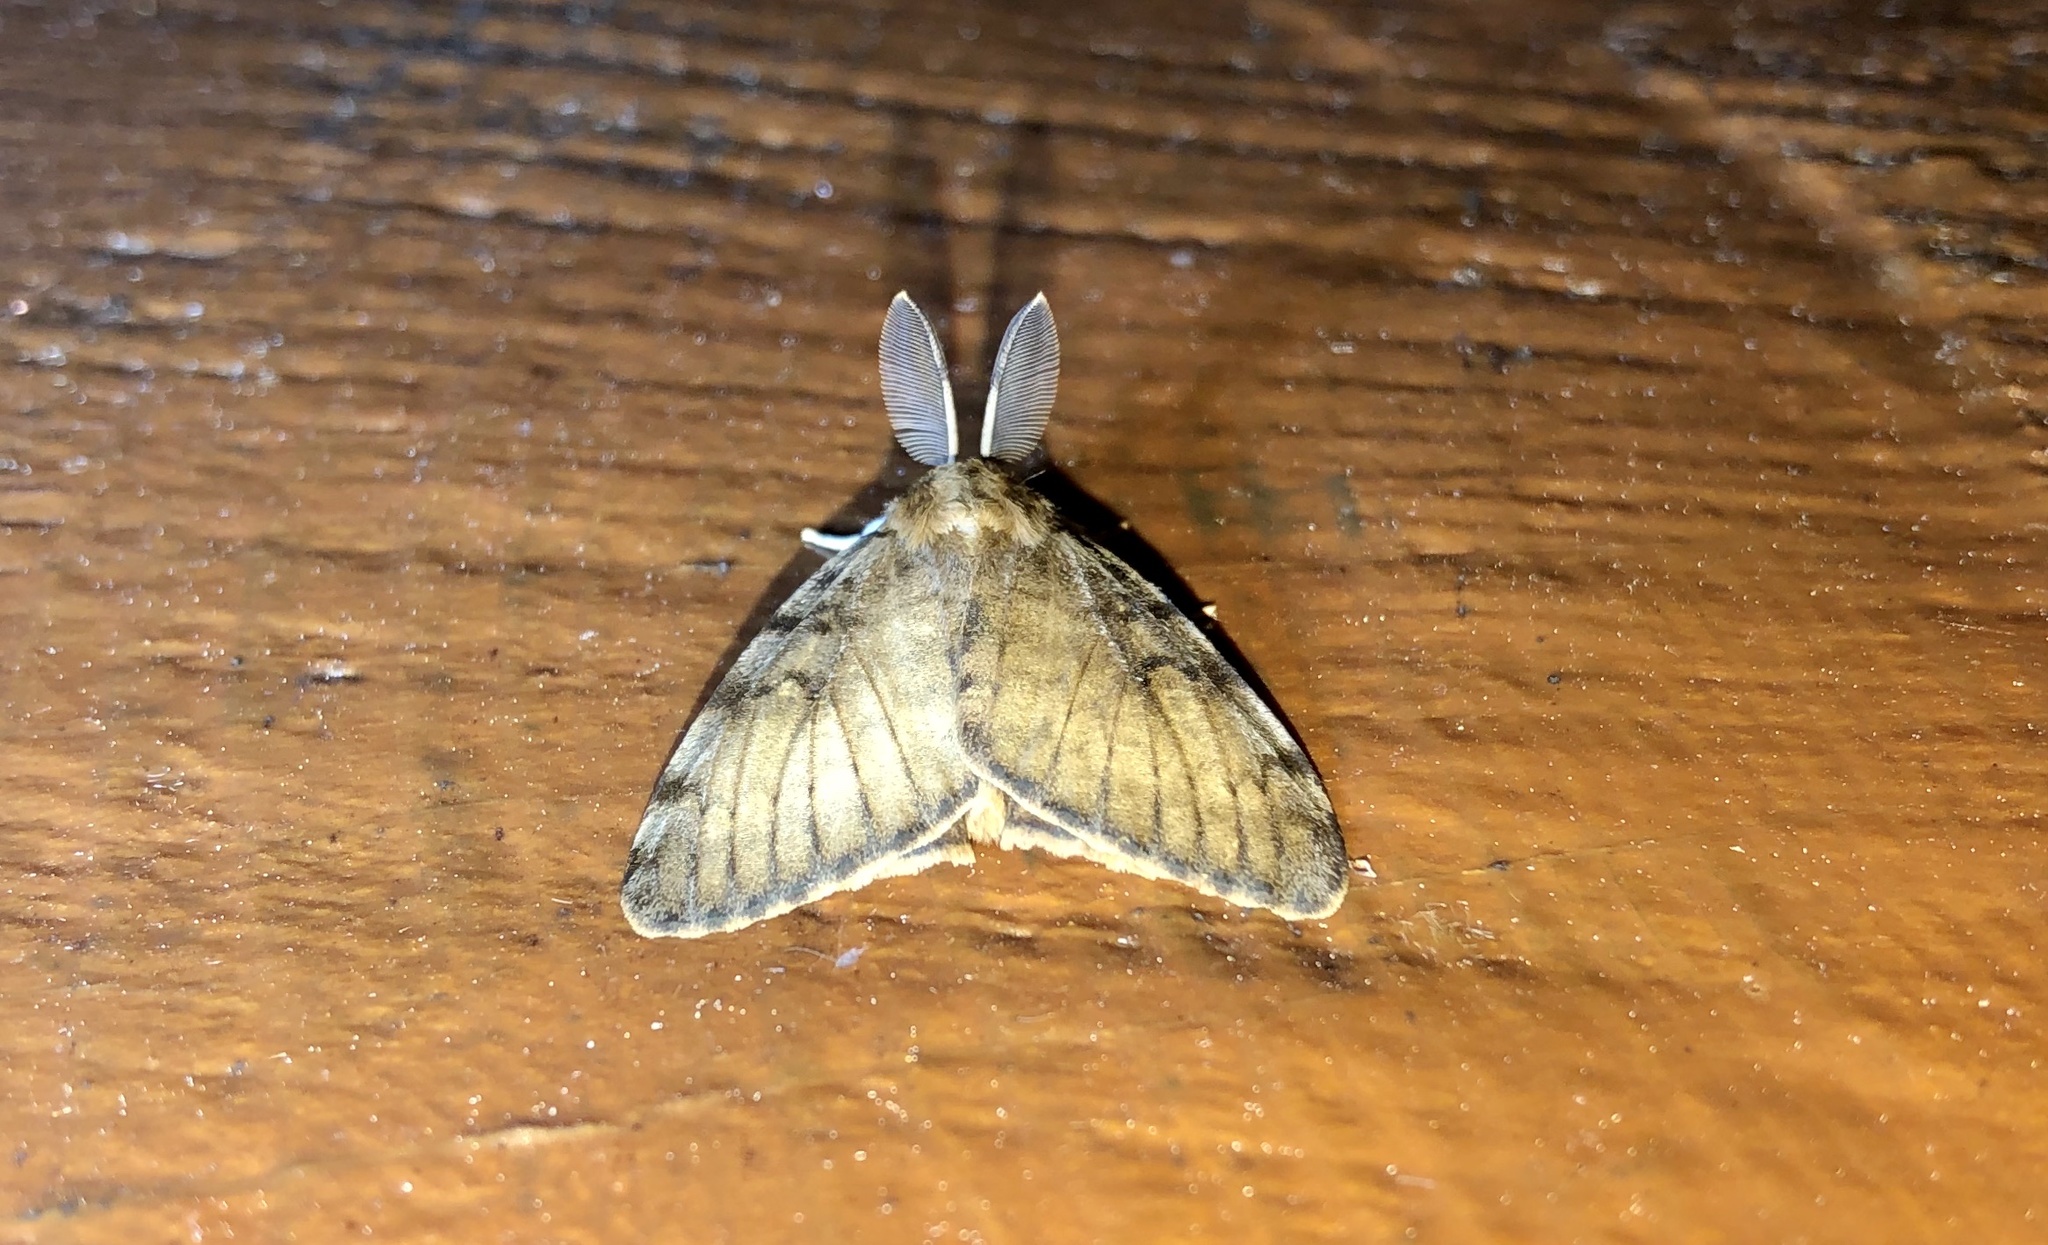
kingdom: Animalia
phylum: Arthropoda
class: Insecta
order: Lepidoptera
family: Erebidae
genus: Lymantria
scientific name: Lymantria dispar
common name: Gypsy moth
